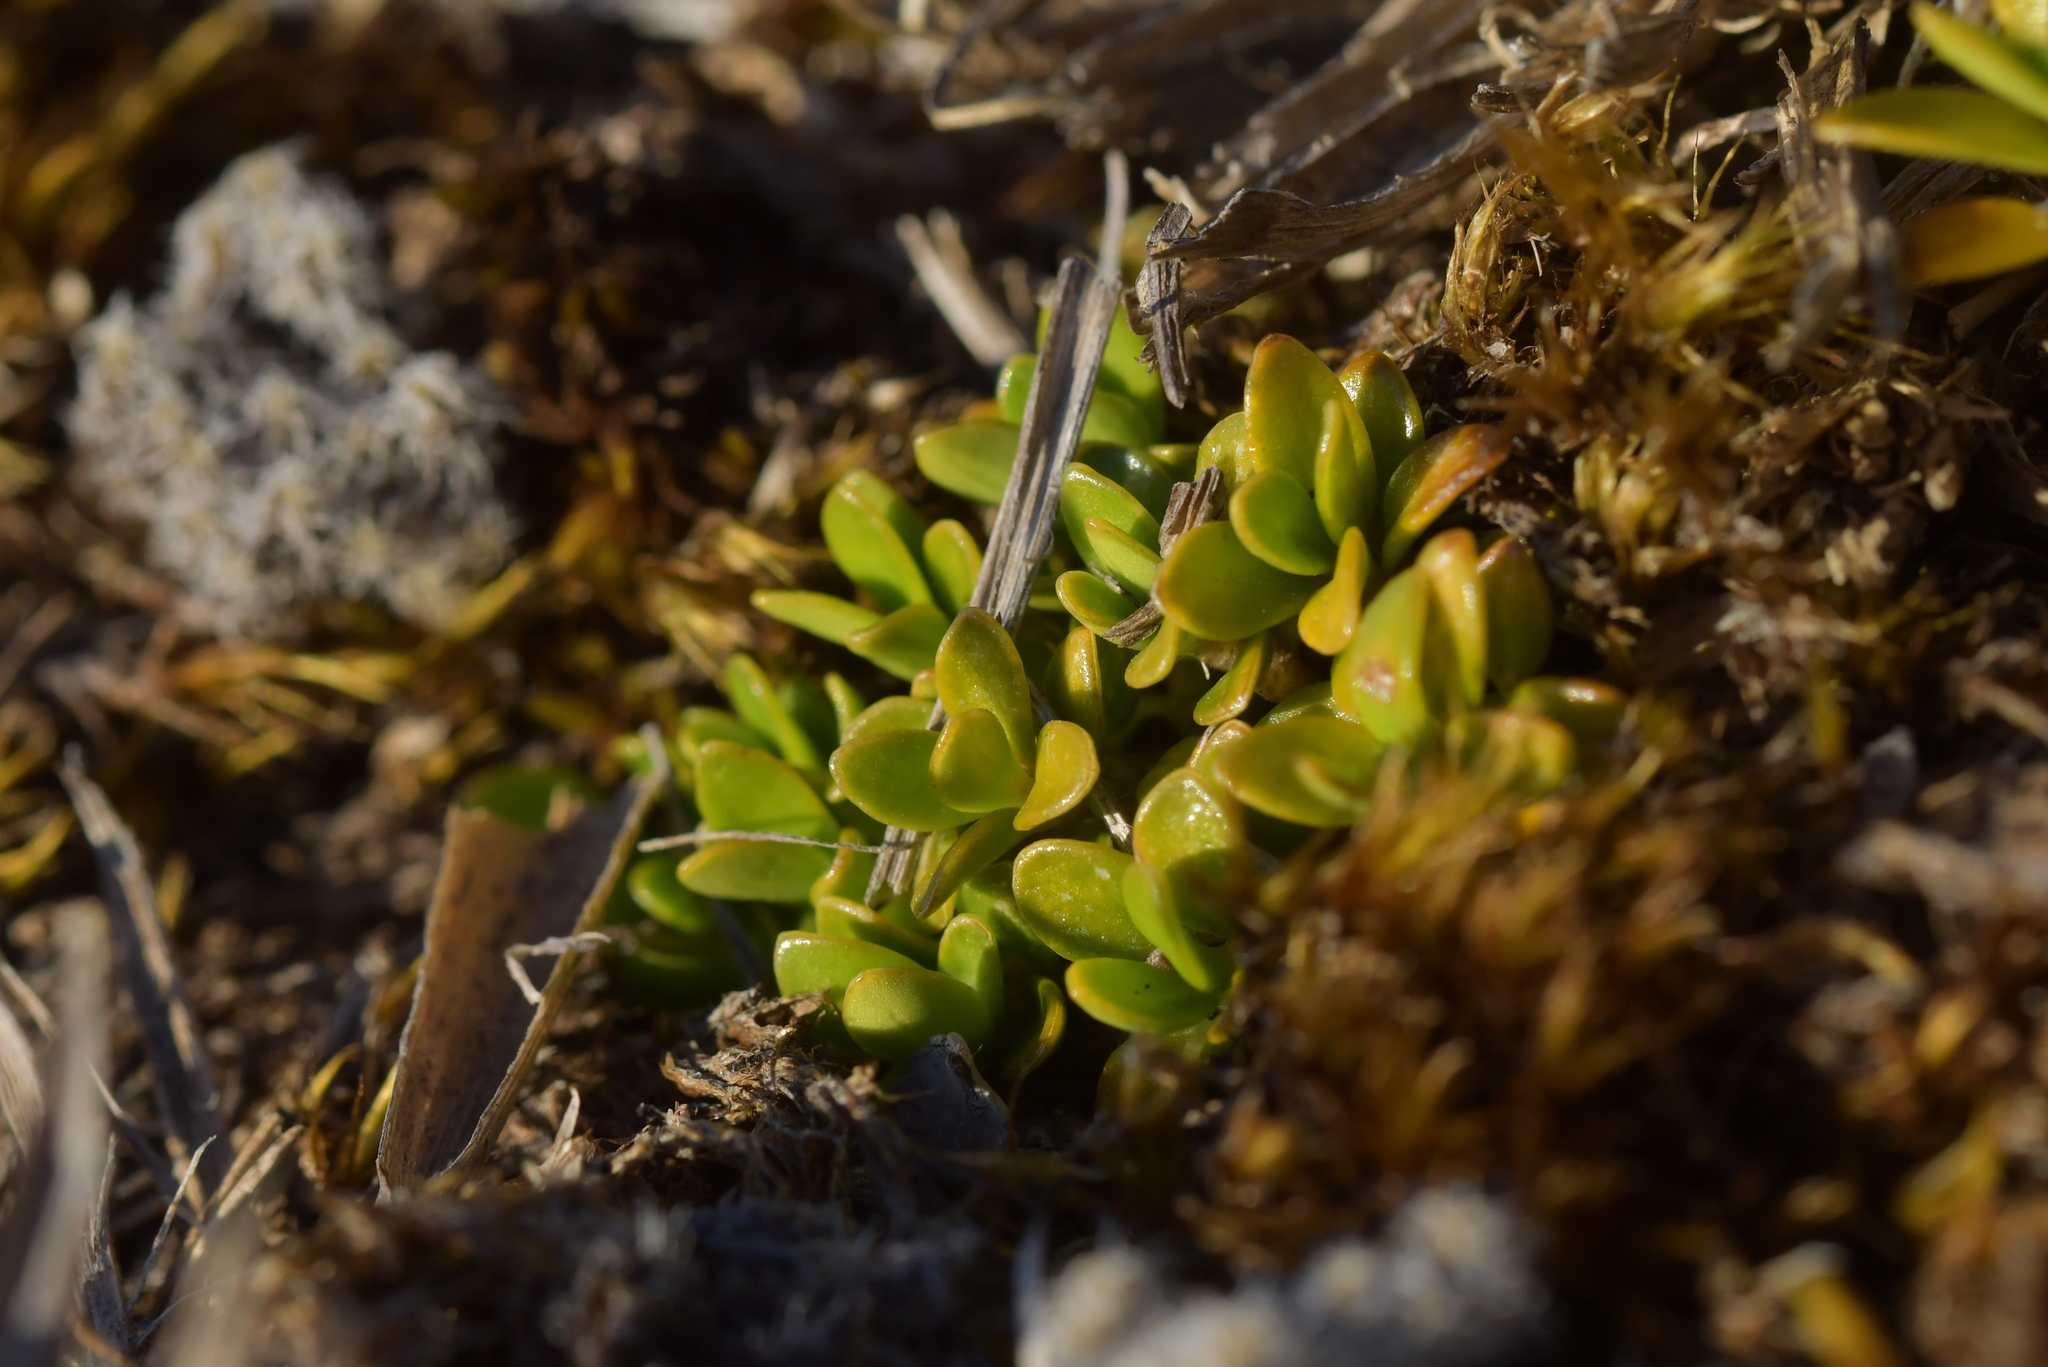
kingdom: Plantae
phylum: Tracheophyta
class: Magnoliopsida
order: Gentianales
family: Rubiaceae
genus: Coprosma
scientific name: Coprosma perpusilla
